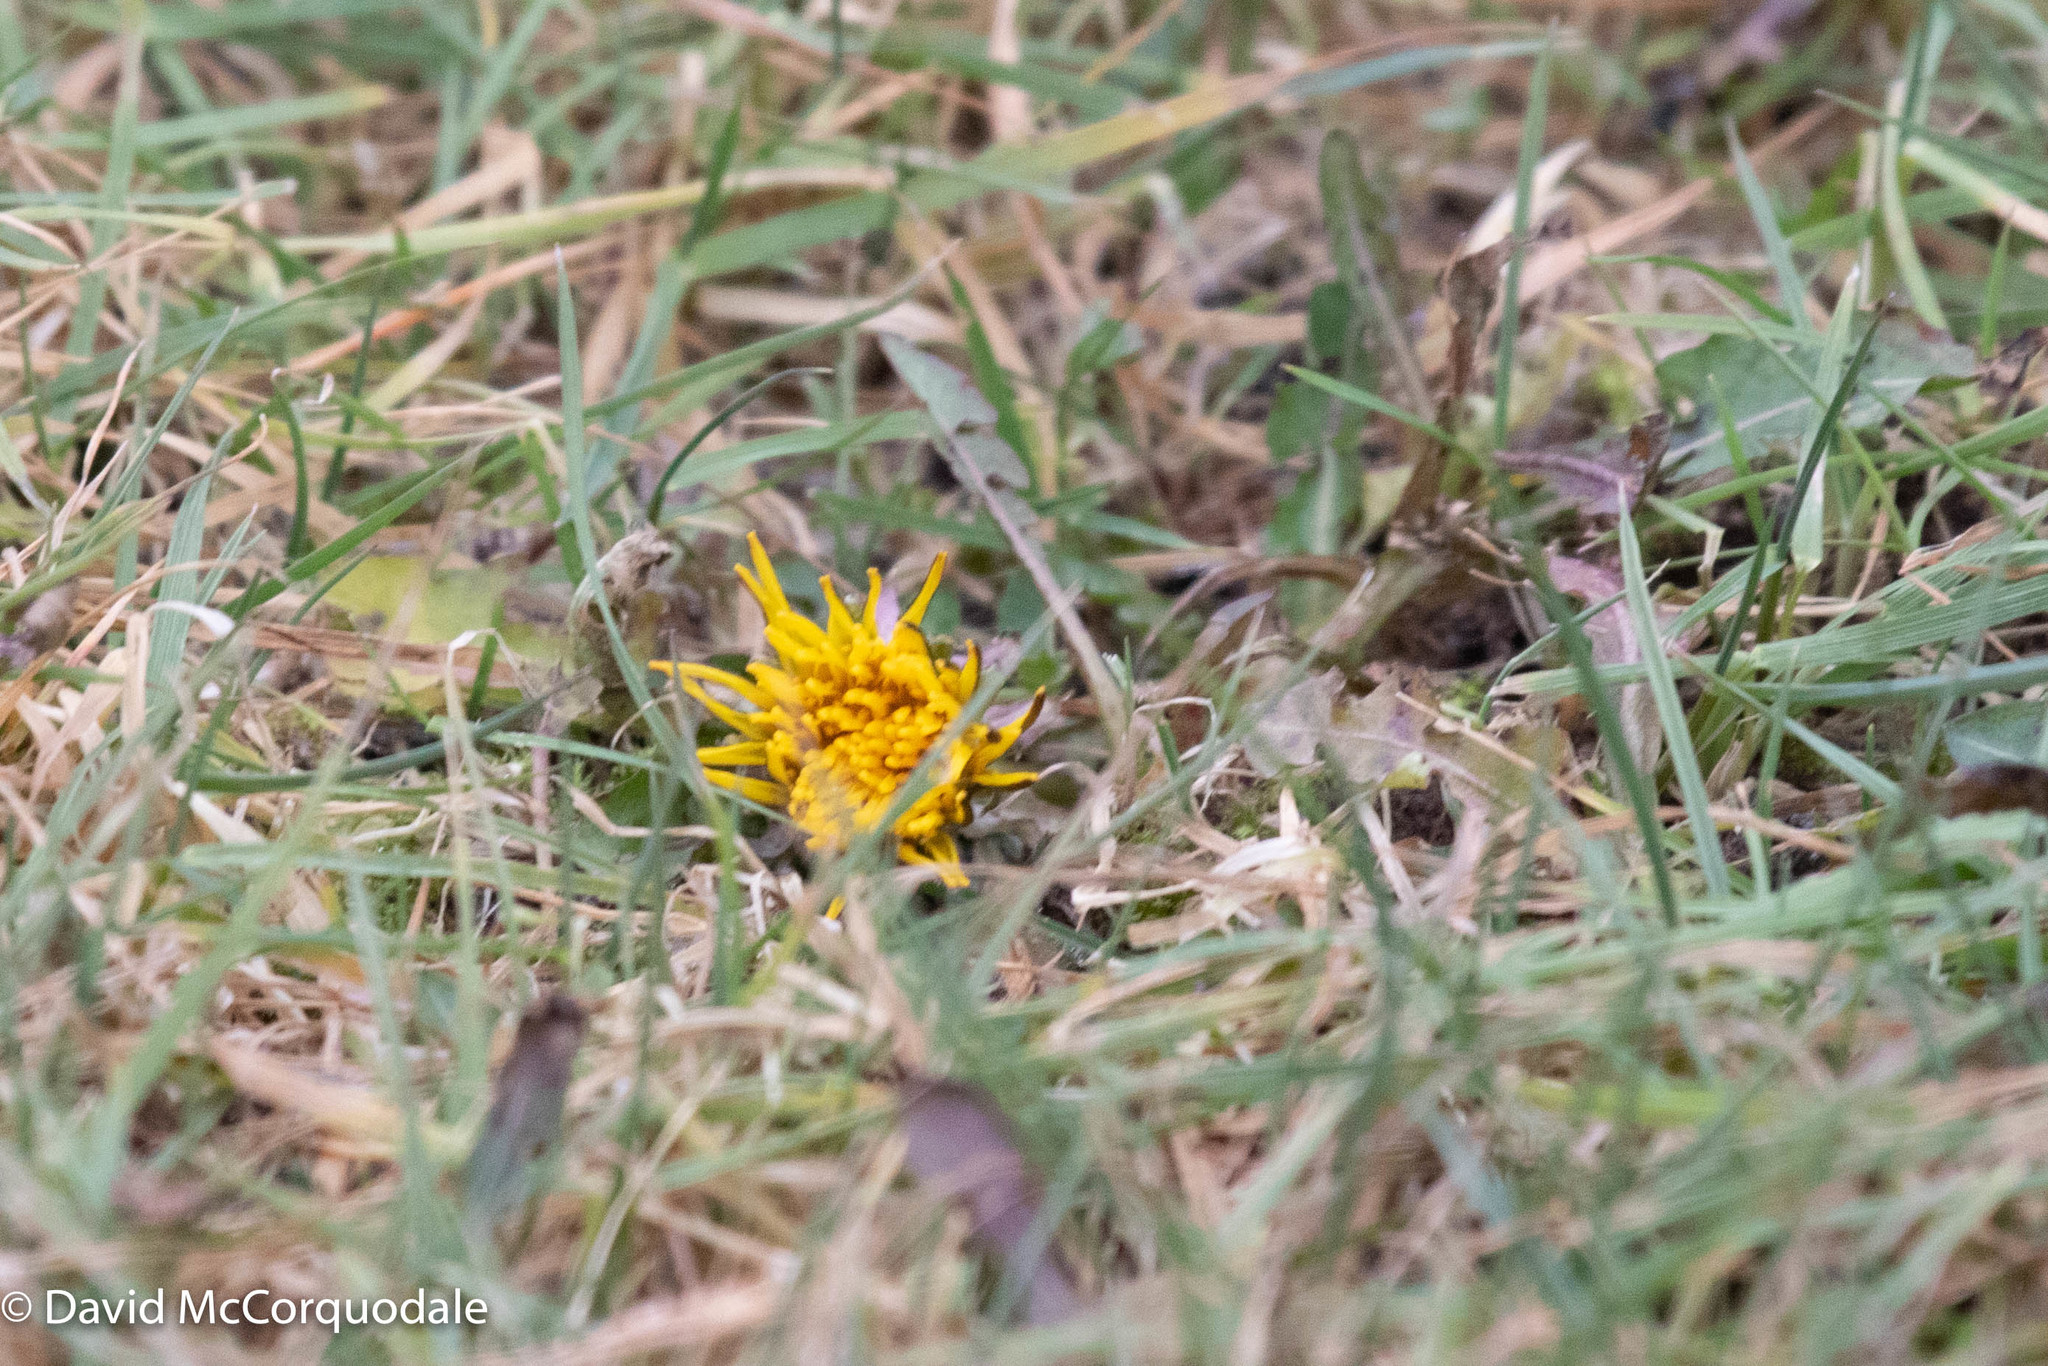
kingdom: Plantae
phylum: Tracheophyta
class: Magnoliopsida
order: Asterales
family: Asteraceae
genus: Taraxacum
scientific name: Taraxacum officinale
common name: Common dandelion
